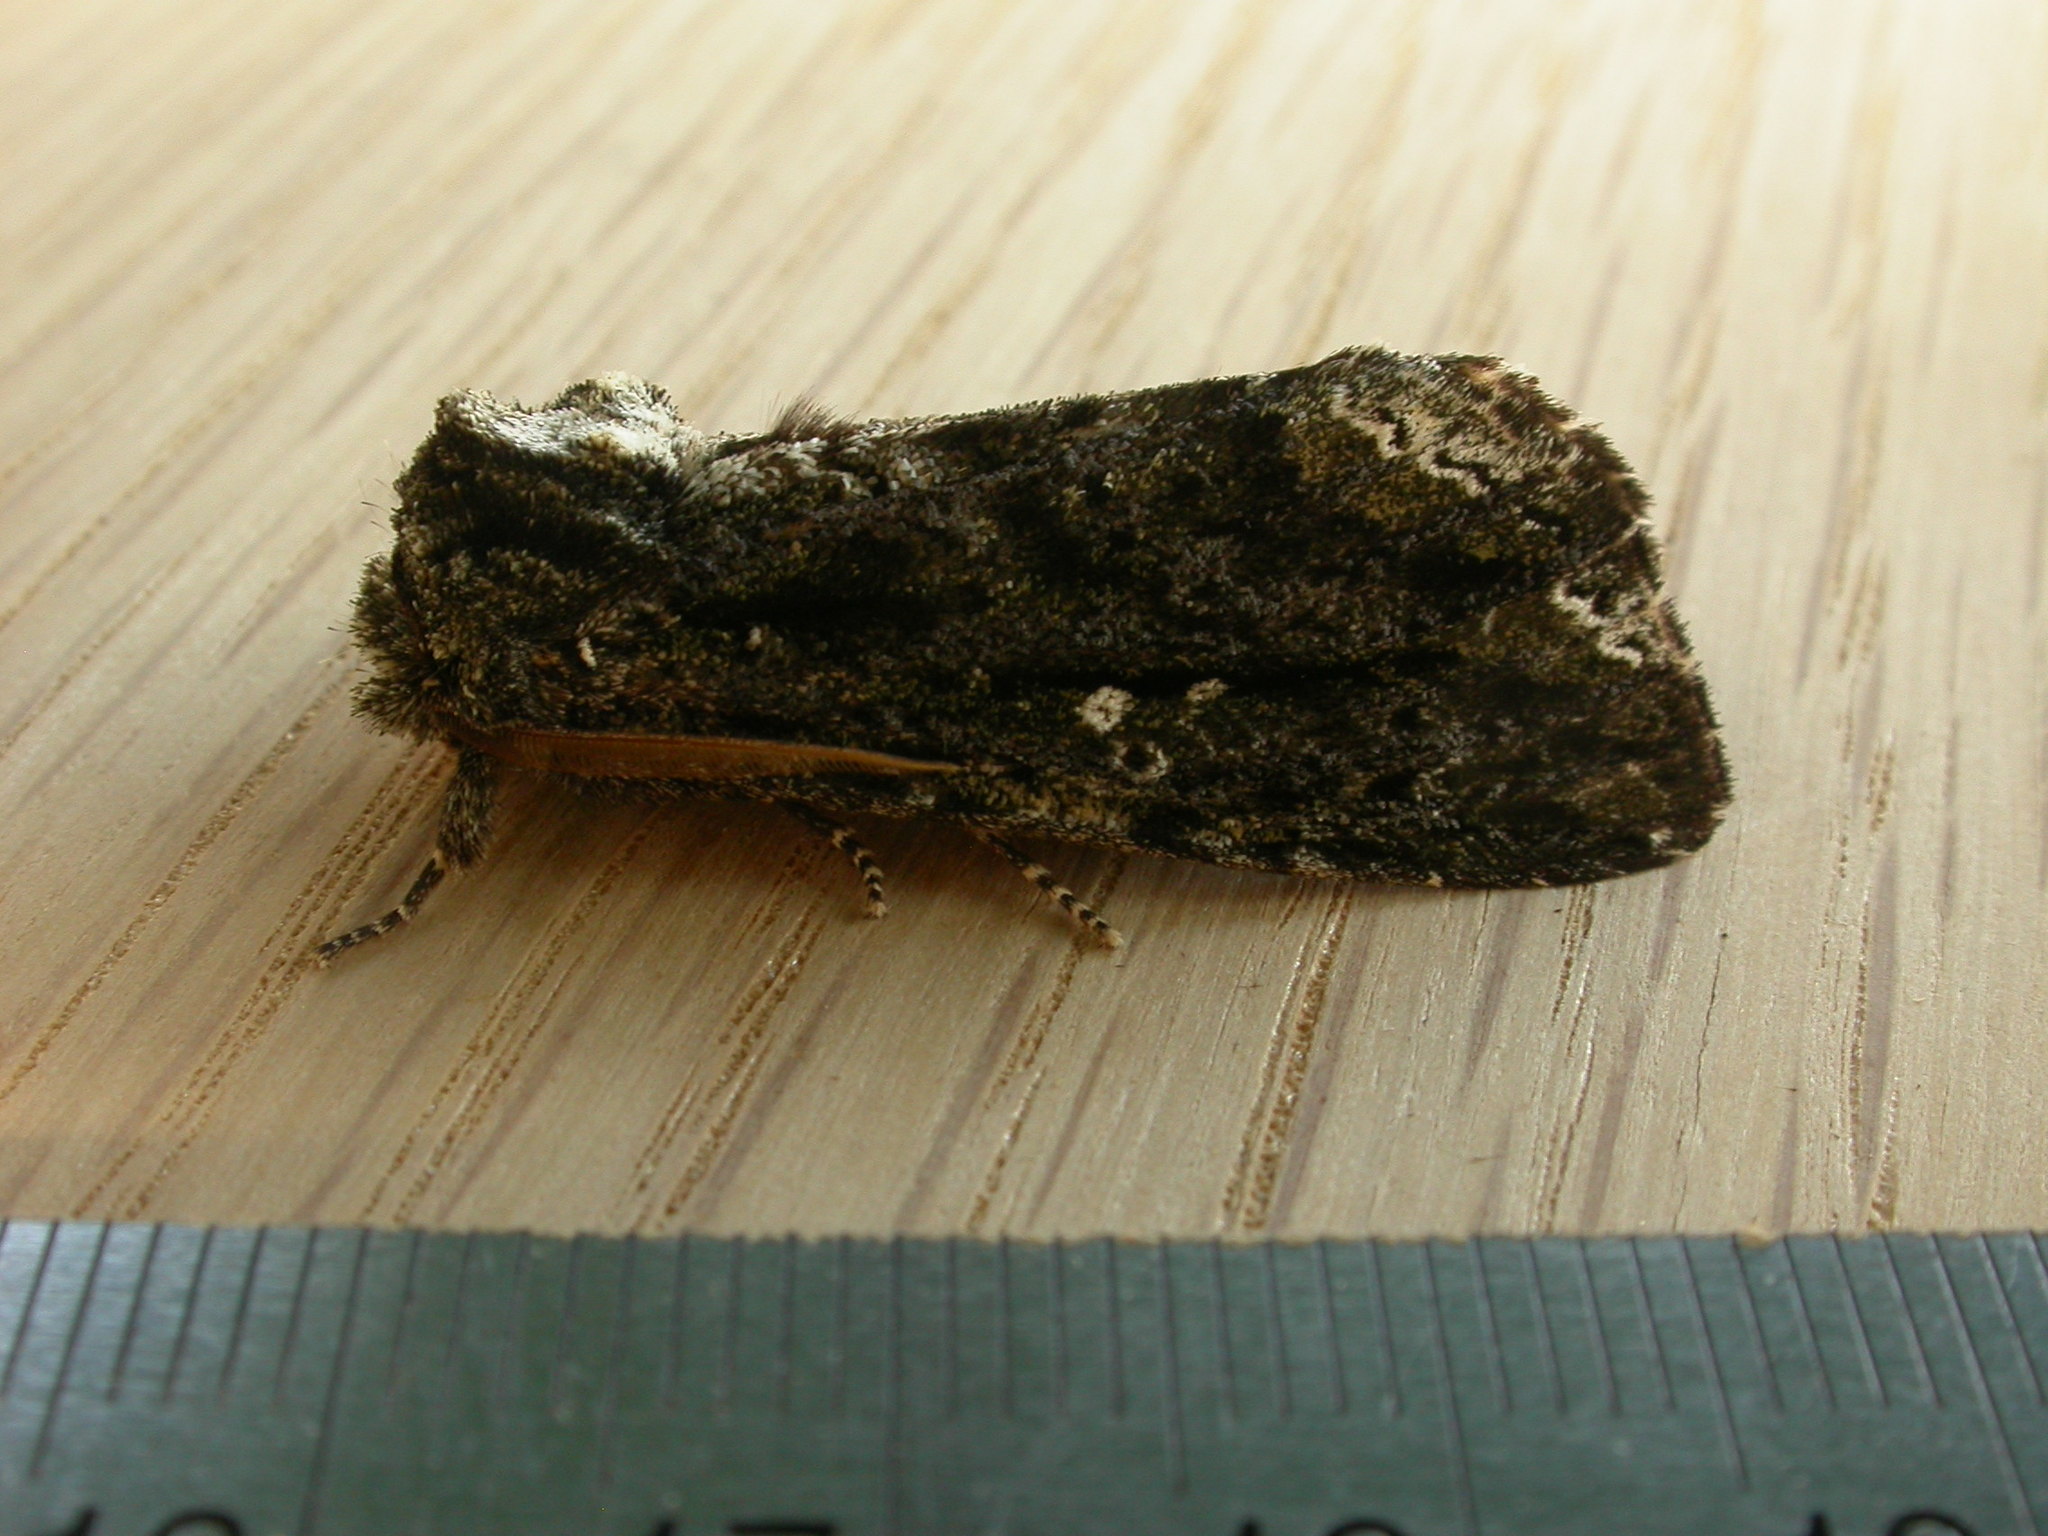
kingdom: Animalia
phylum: Arthropoda
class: Insecta
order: Lepidoptera
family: Notodontidae
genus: Neola
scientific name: Neola semiaurata
